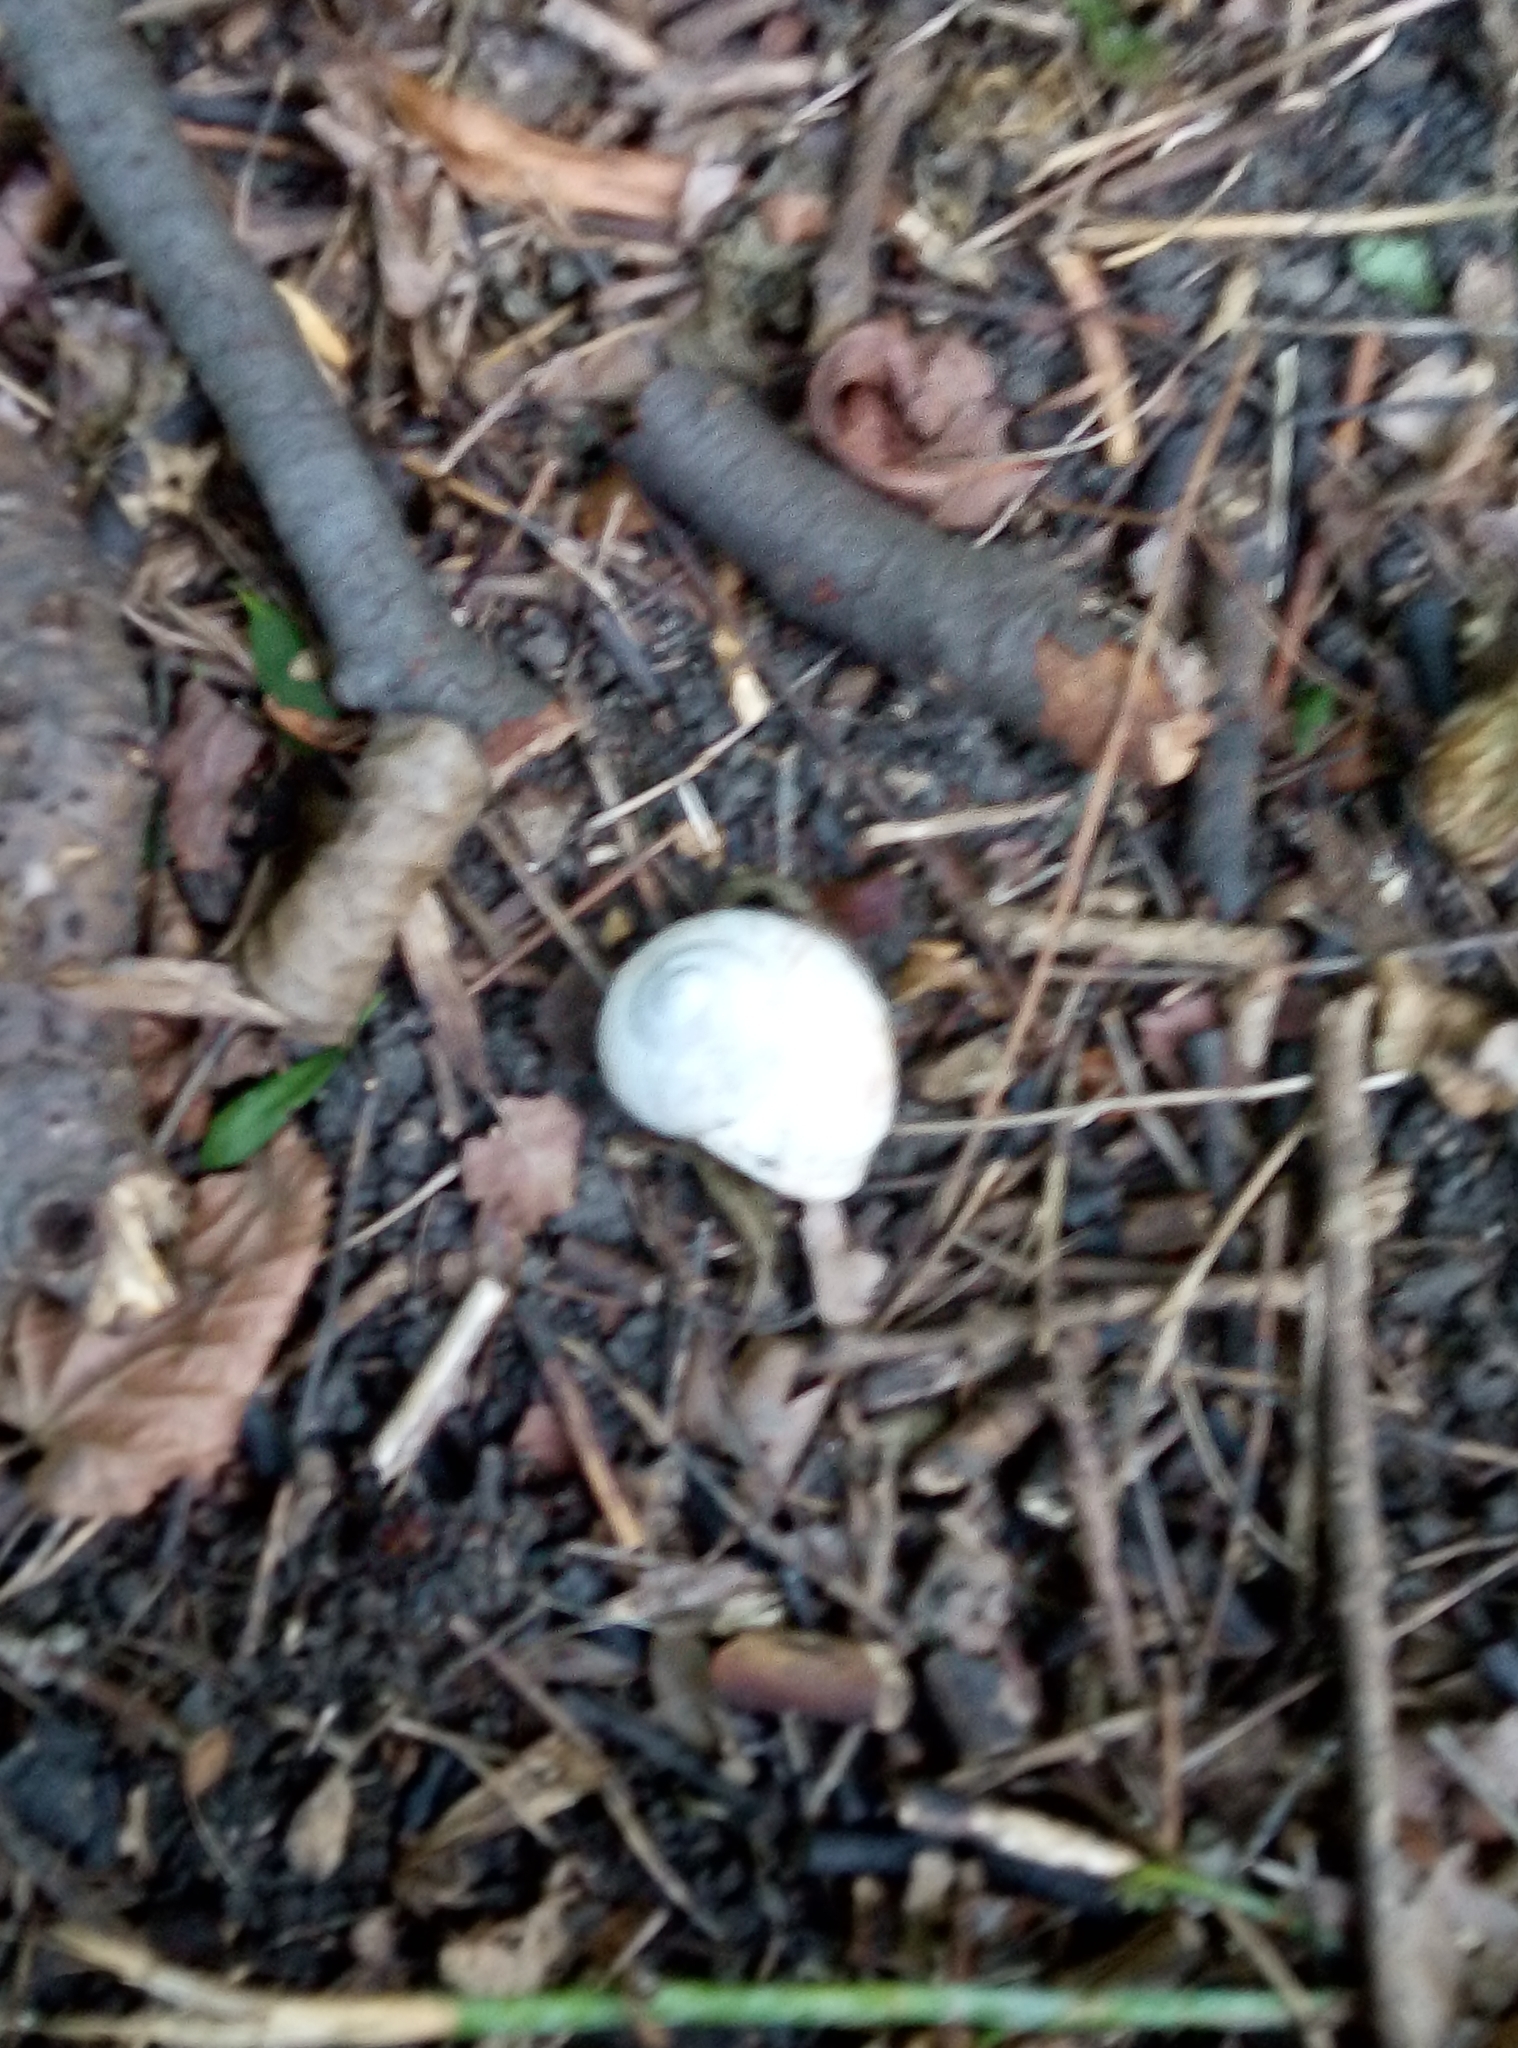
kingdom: Animalia
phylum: Mollusca
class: Gastropoda
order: Stylommatophora
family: Helicidae
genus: Helix
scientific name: Helix pomatia
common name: Roman snail
